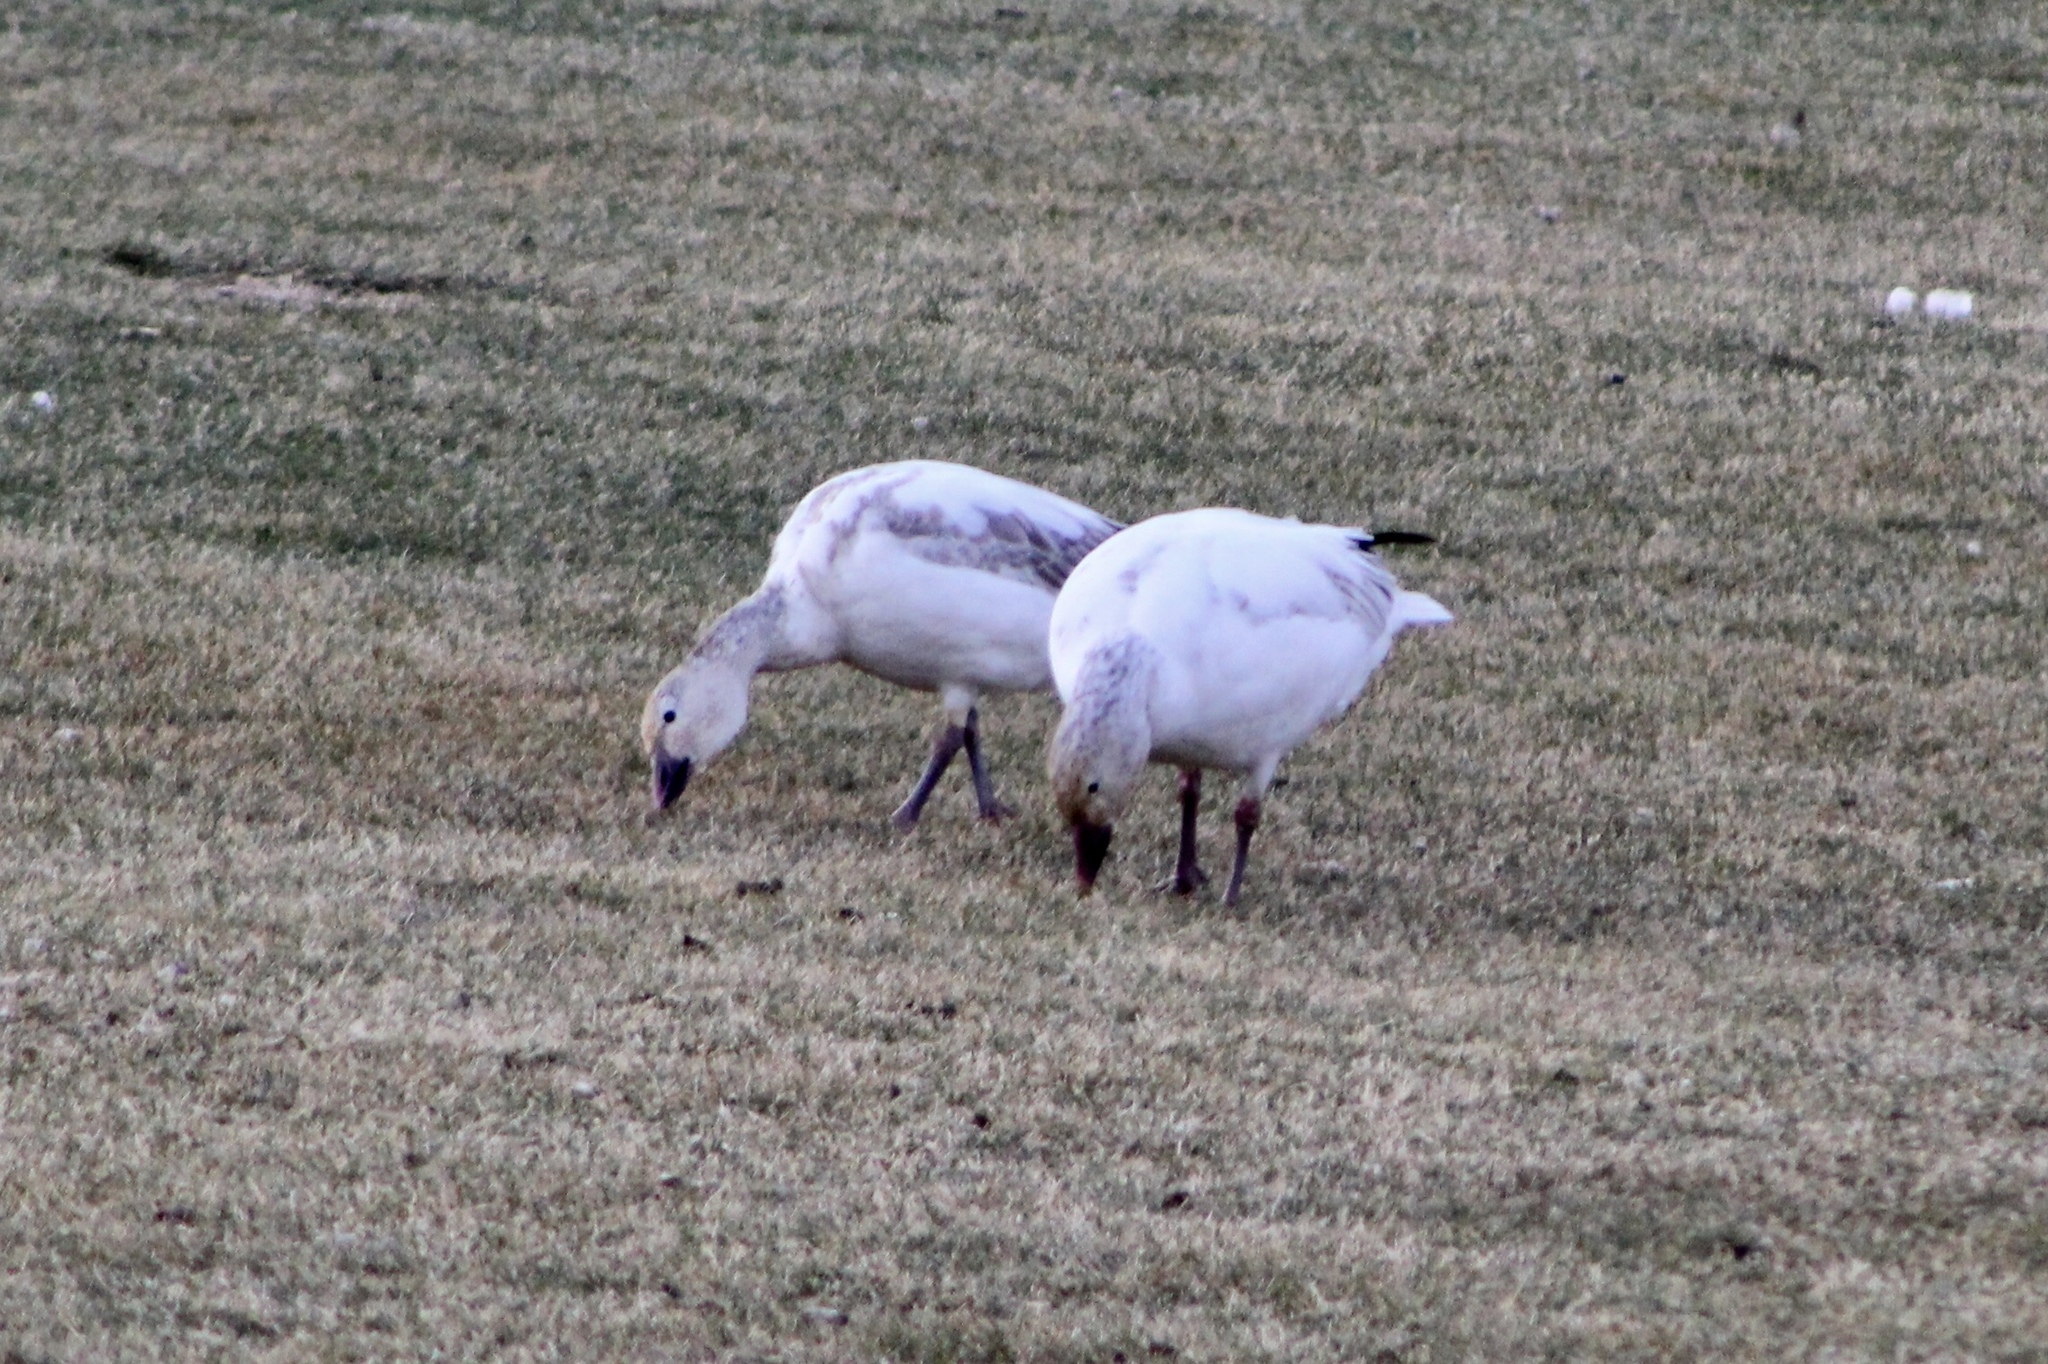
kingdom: Animalia
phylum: Chordata
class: Aves
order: Anseriformes
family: Anatidae
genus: Anser
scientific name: Anser caerulescens
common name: Snow goose
